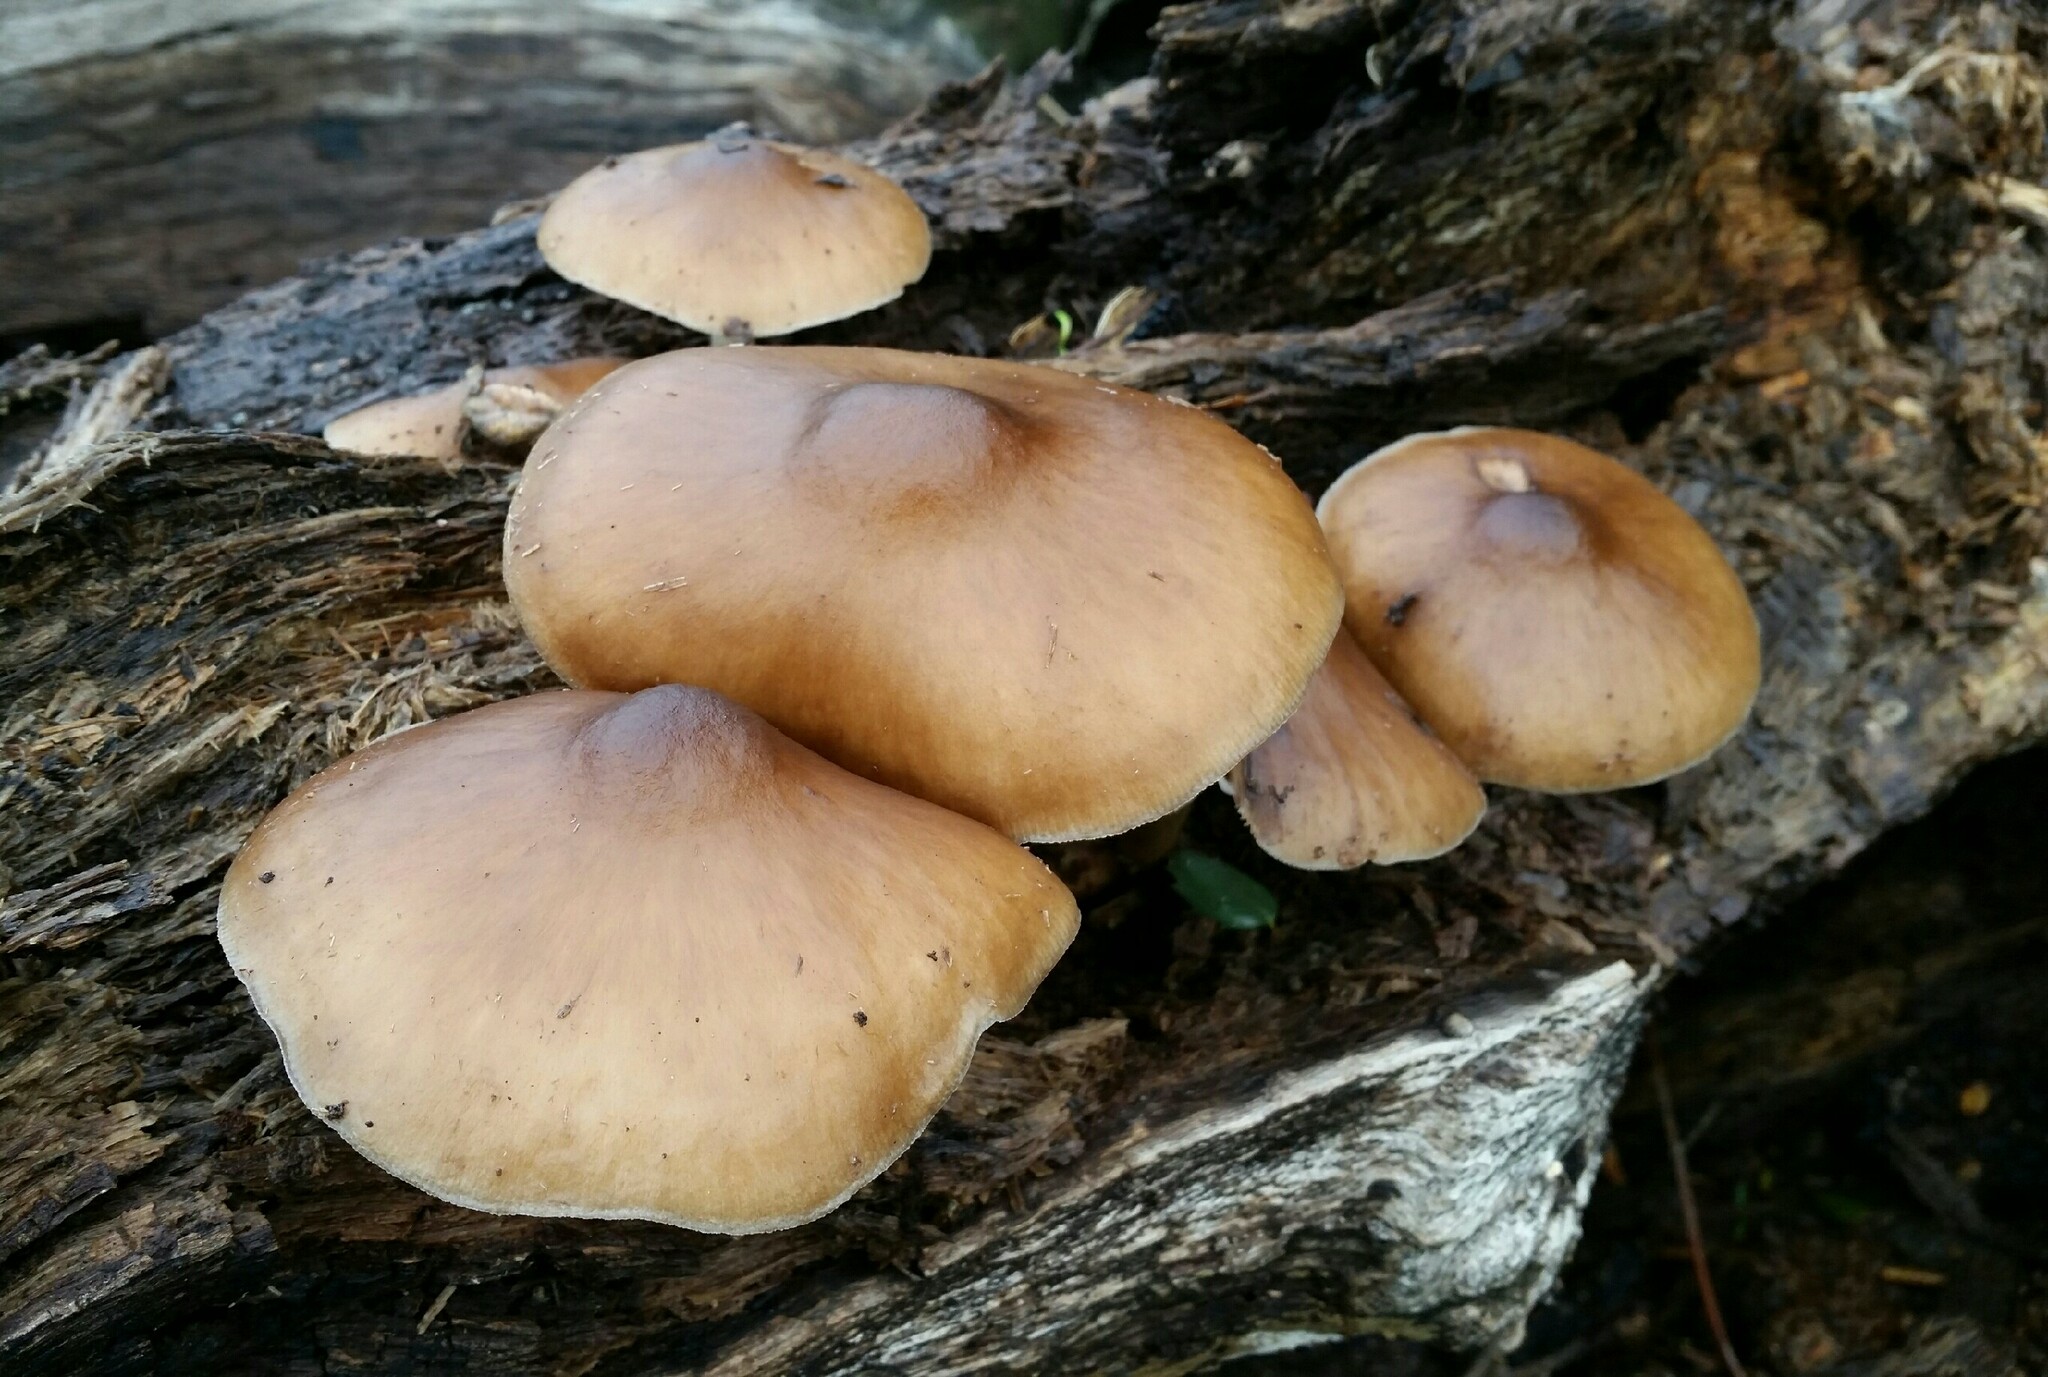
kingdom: Fungi
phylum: Basidiomycota
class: Agaricomycetes
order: Agaricales
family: Pluteaceae
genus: Pluteus
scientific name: Pluteus cervinus
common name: Deer shield
